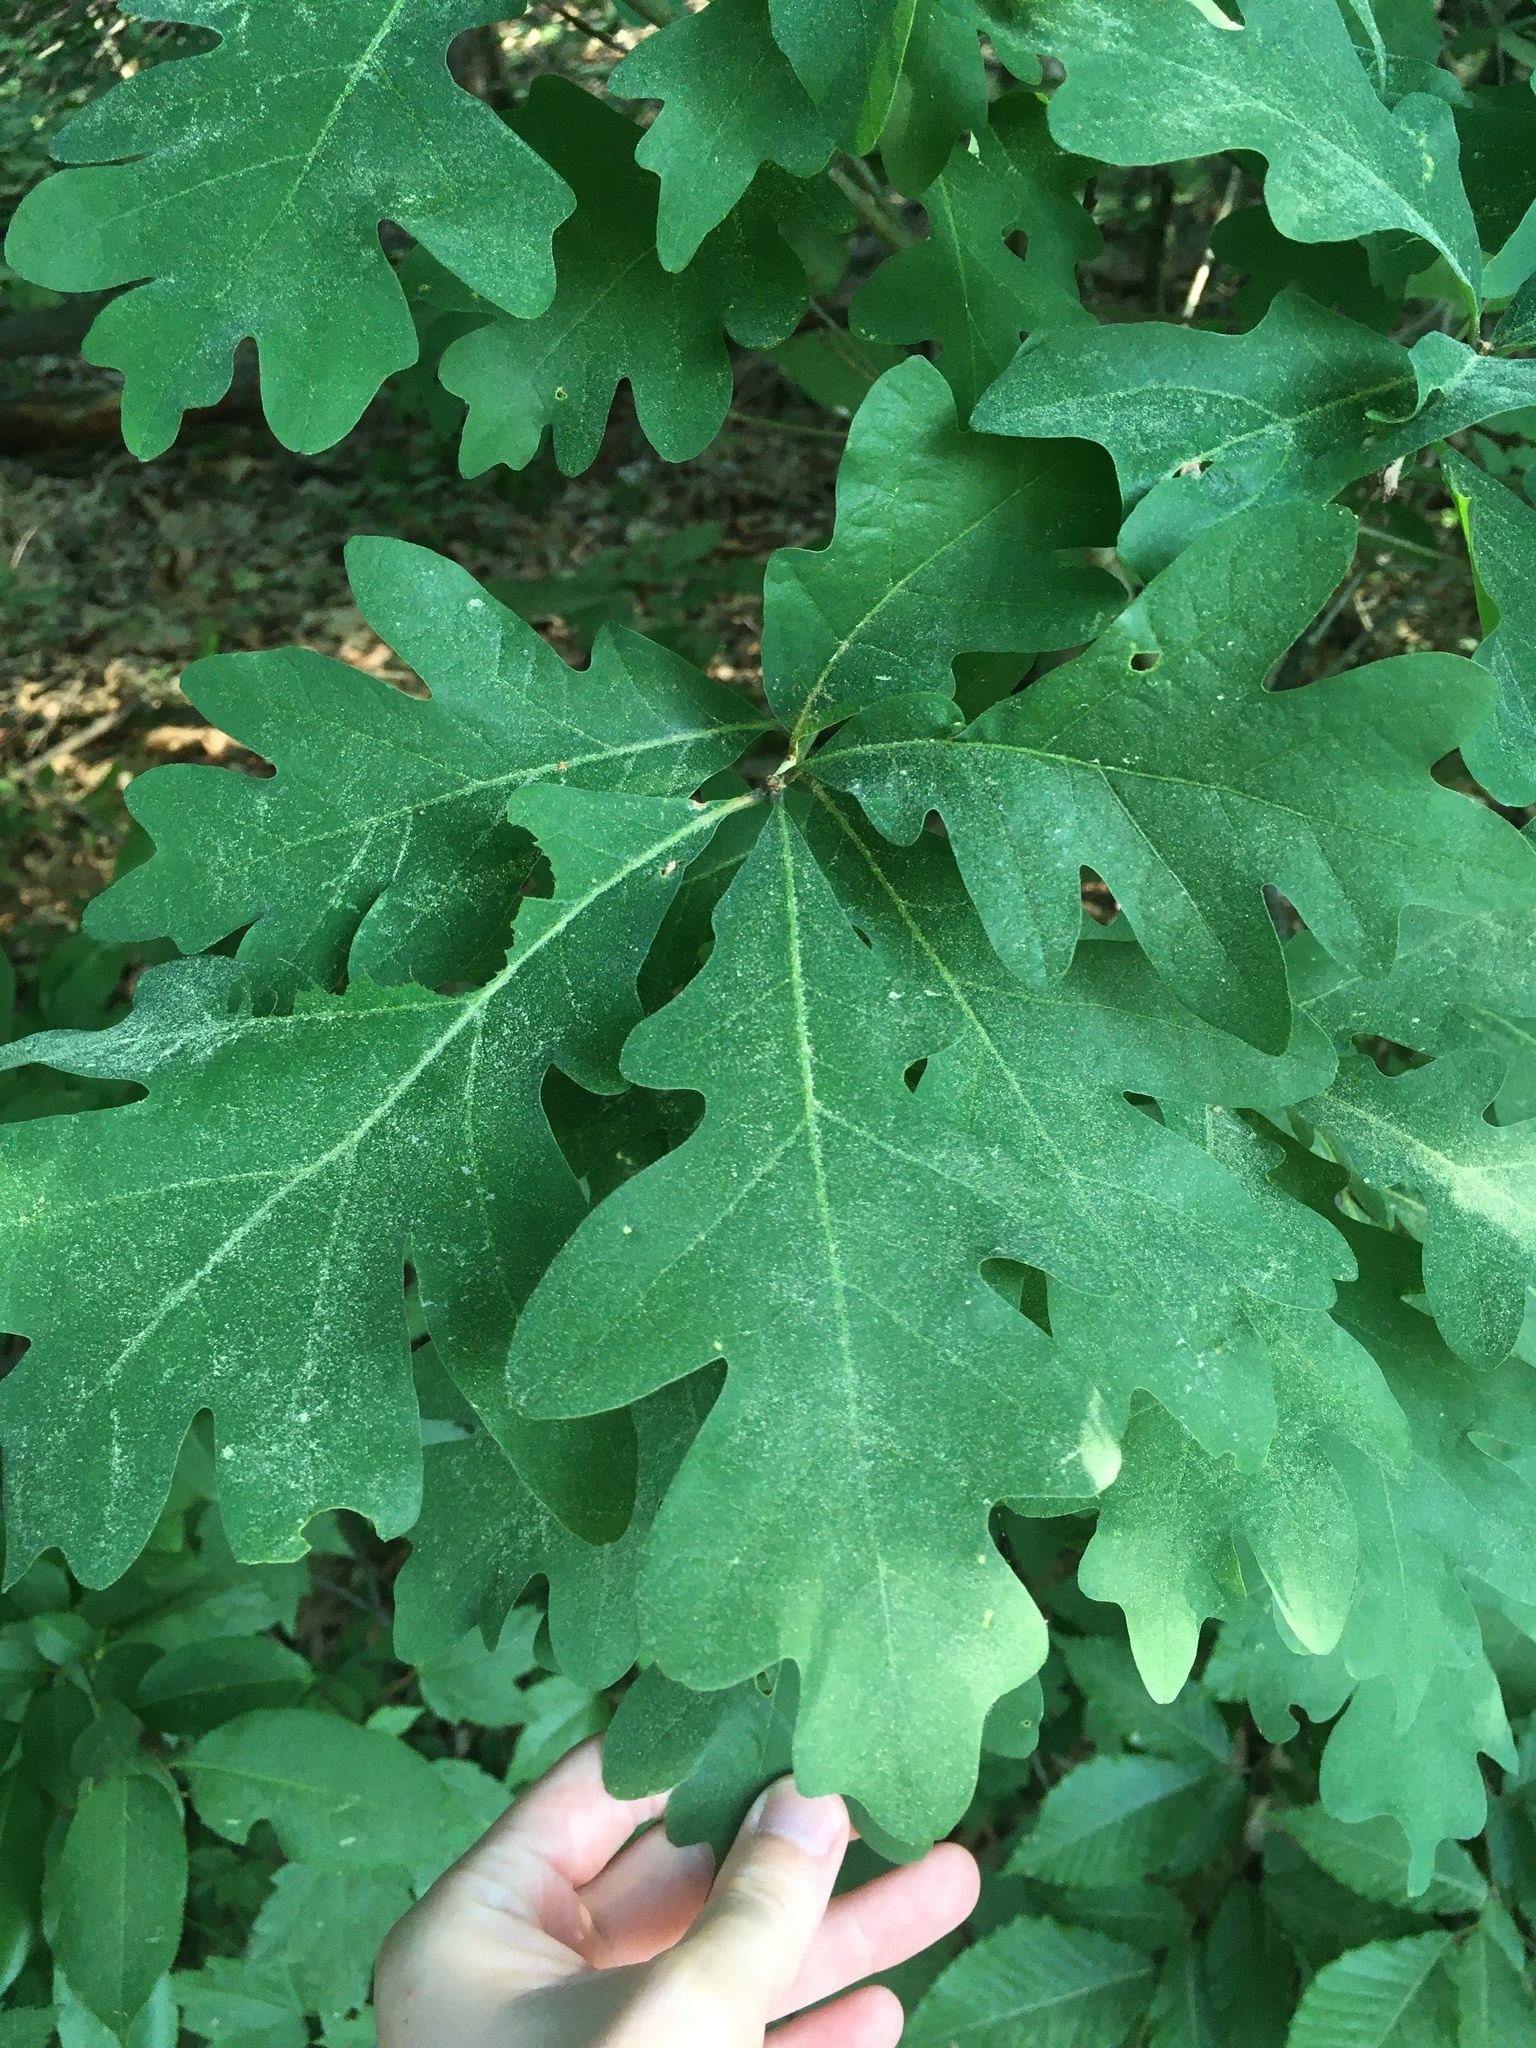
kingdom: Plantae
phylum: Tracheophyta
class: Magnoliopsida
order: Fagales
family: Fagaceae
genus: Quercus
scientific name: Quercus alba
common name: White oak
